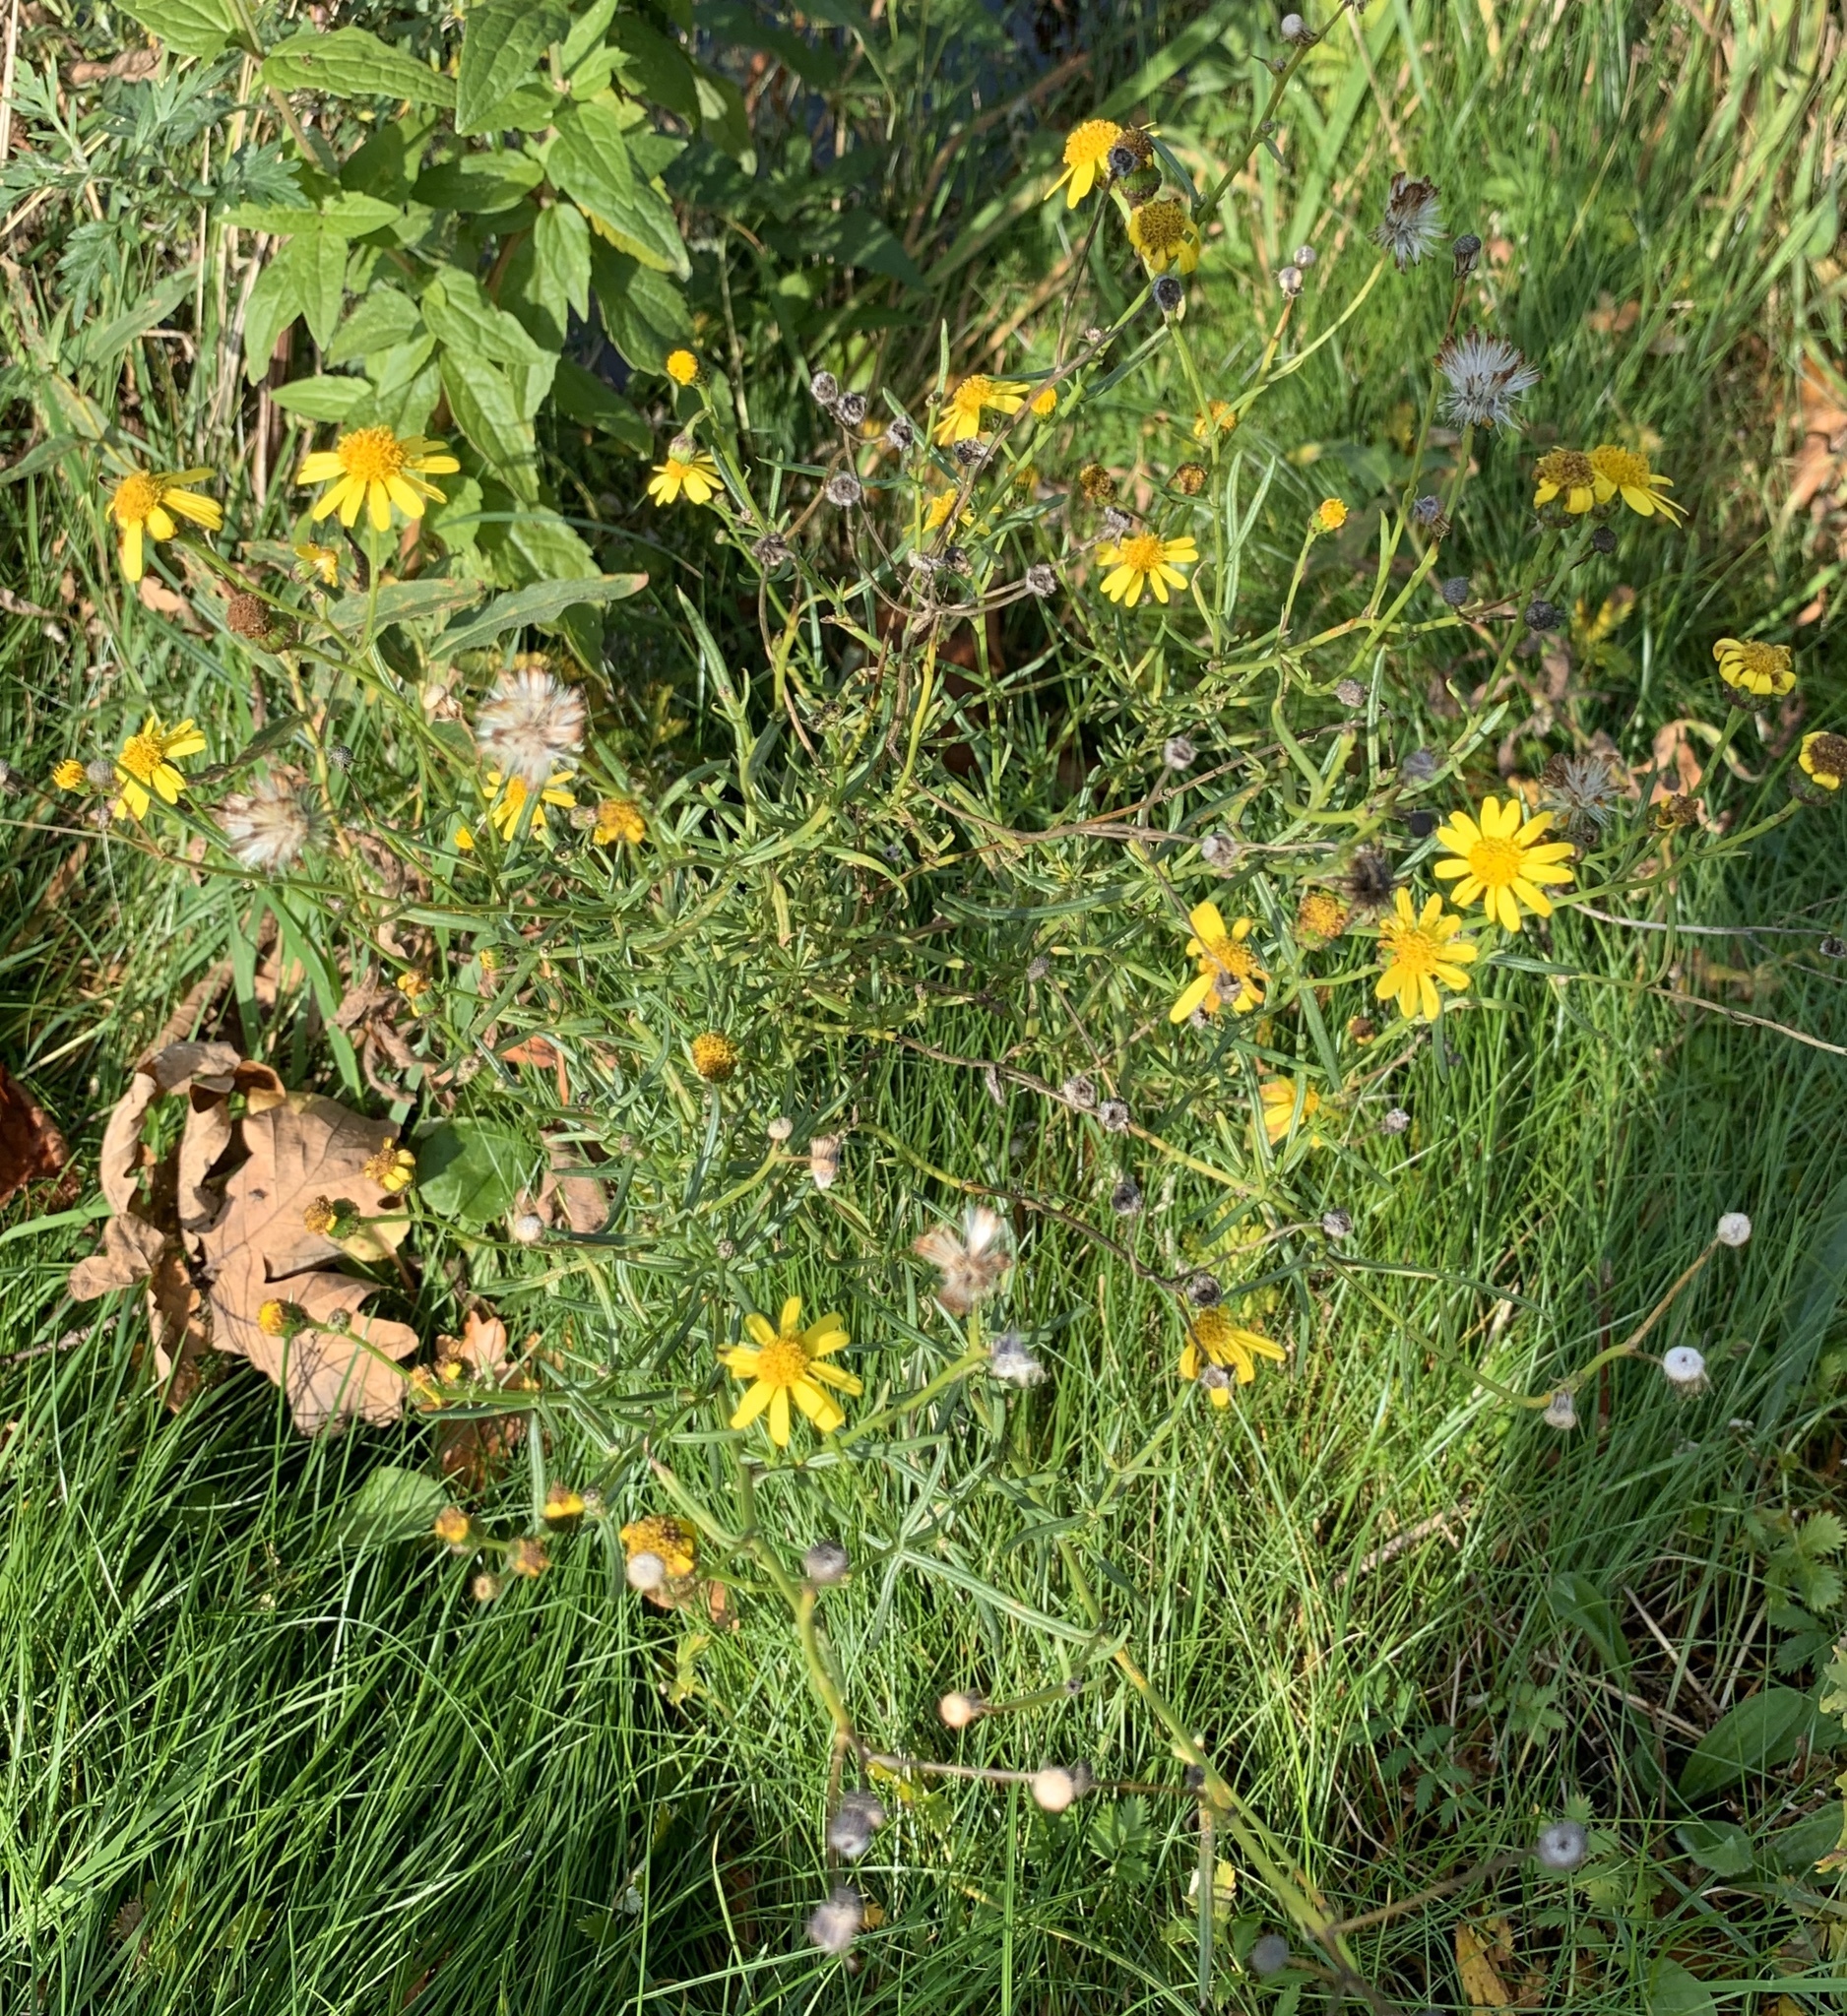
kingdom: Plantae
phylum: Tracheophyta
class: Magnoliopsida
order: Asterales
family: Asteraceae
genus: Senecio
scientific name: Senecio inaequidens
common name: Narrow-leaved ragwort
